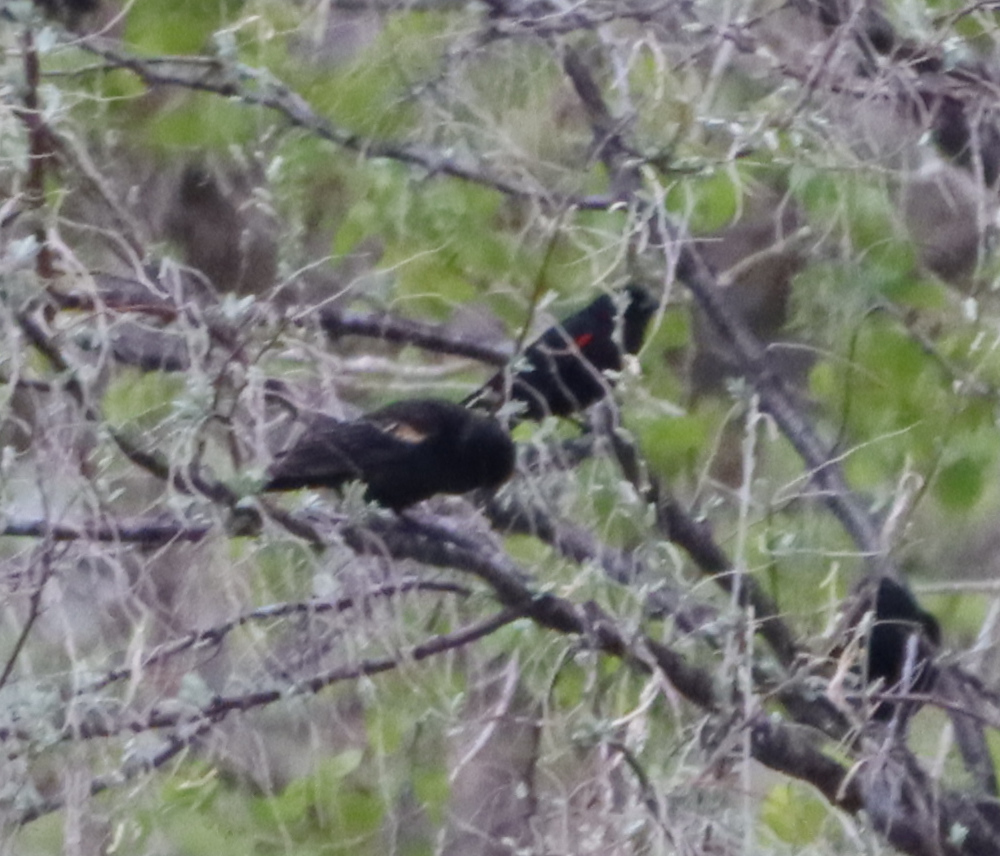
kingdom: Animalia
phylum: Chordata
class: Aves
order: Passeriformes
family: Icteridae
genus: Agelaius
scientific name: Agelaius phoeniceus
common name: Red-winged blackbird
